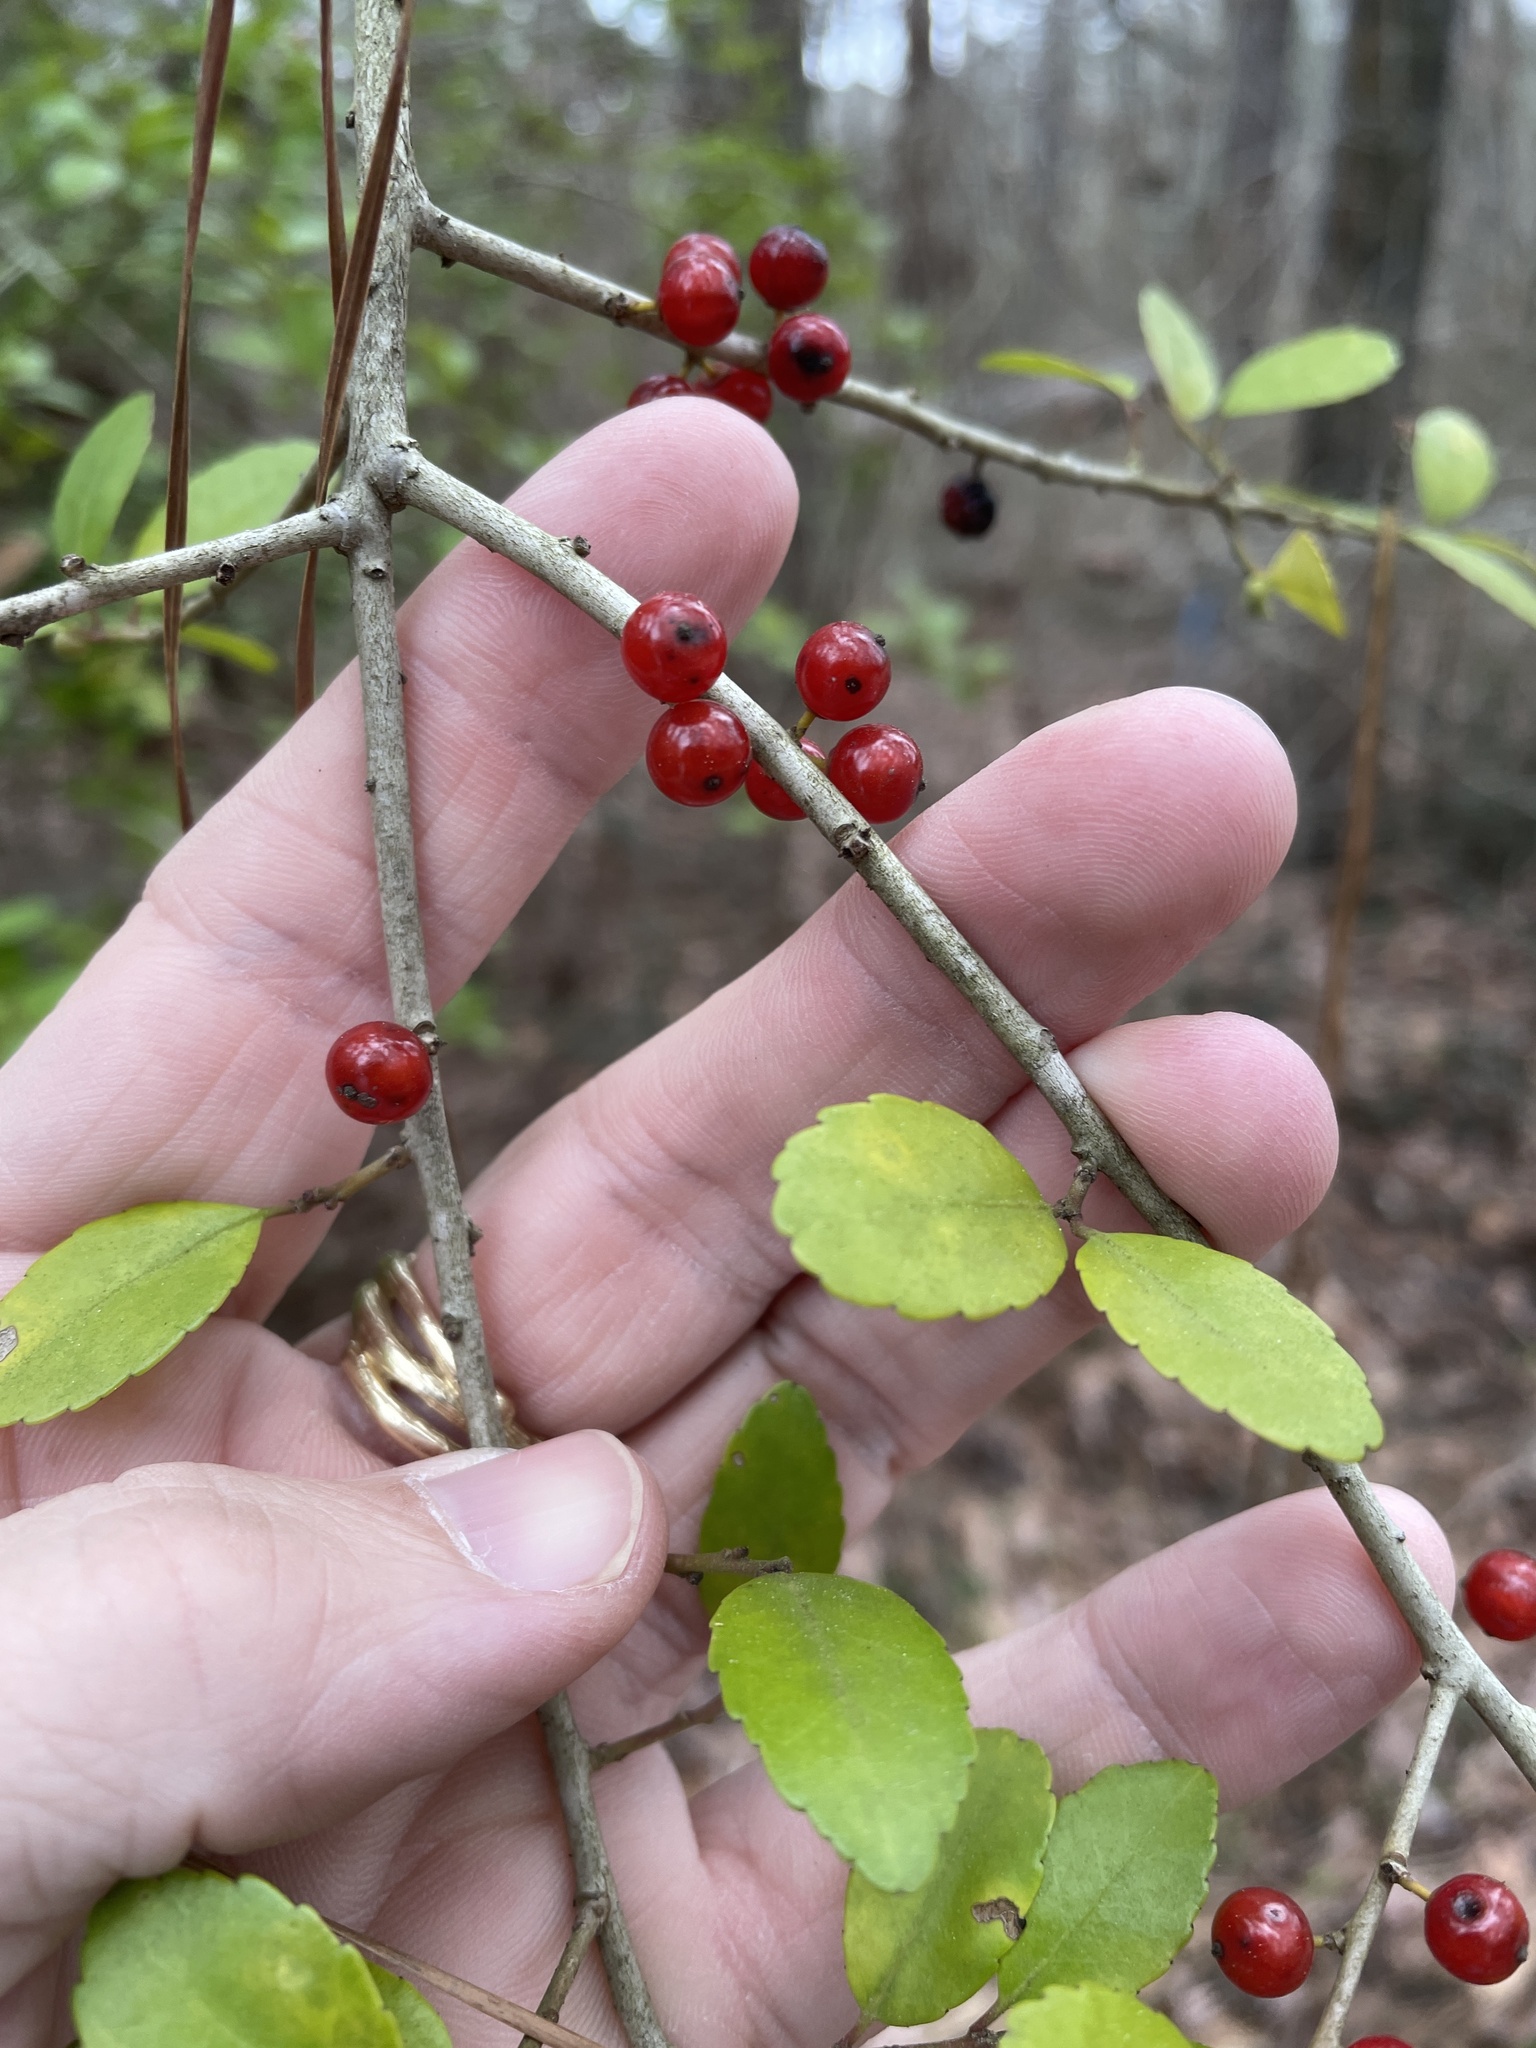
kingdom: Plantae
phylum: Tracheophyta
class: Magnoliopsida
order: Aquifoliales
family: Aquifoliaceae
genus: Ilex
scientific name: Ilex vomitoria
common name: Yaupon holly
